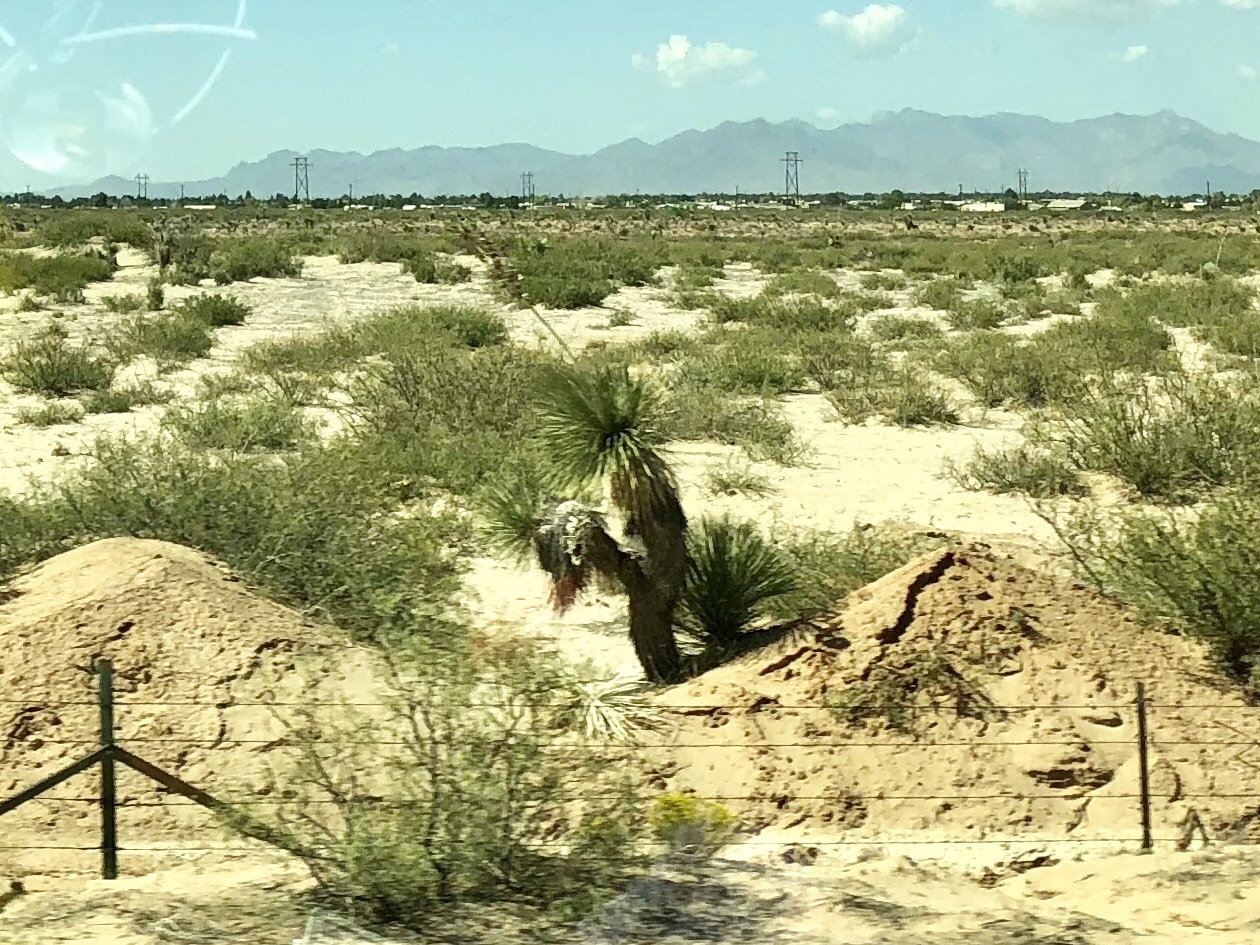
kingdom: Plantae
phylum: Tracheophyta
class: Liliopsida
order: Asparagales
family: Asparagaceae
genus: Yucca
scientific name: Yucca elata
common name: Palmella
